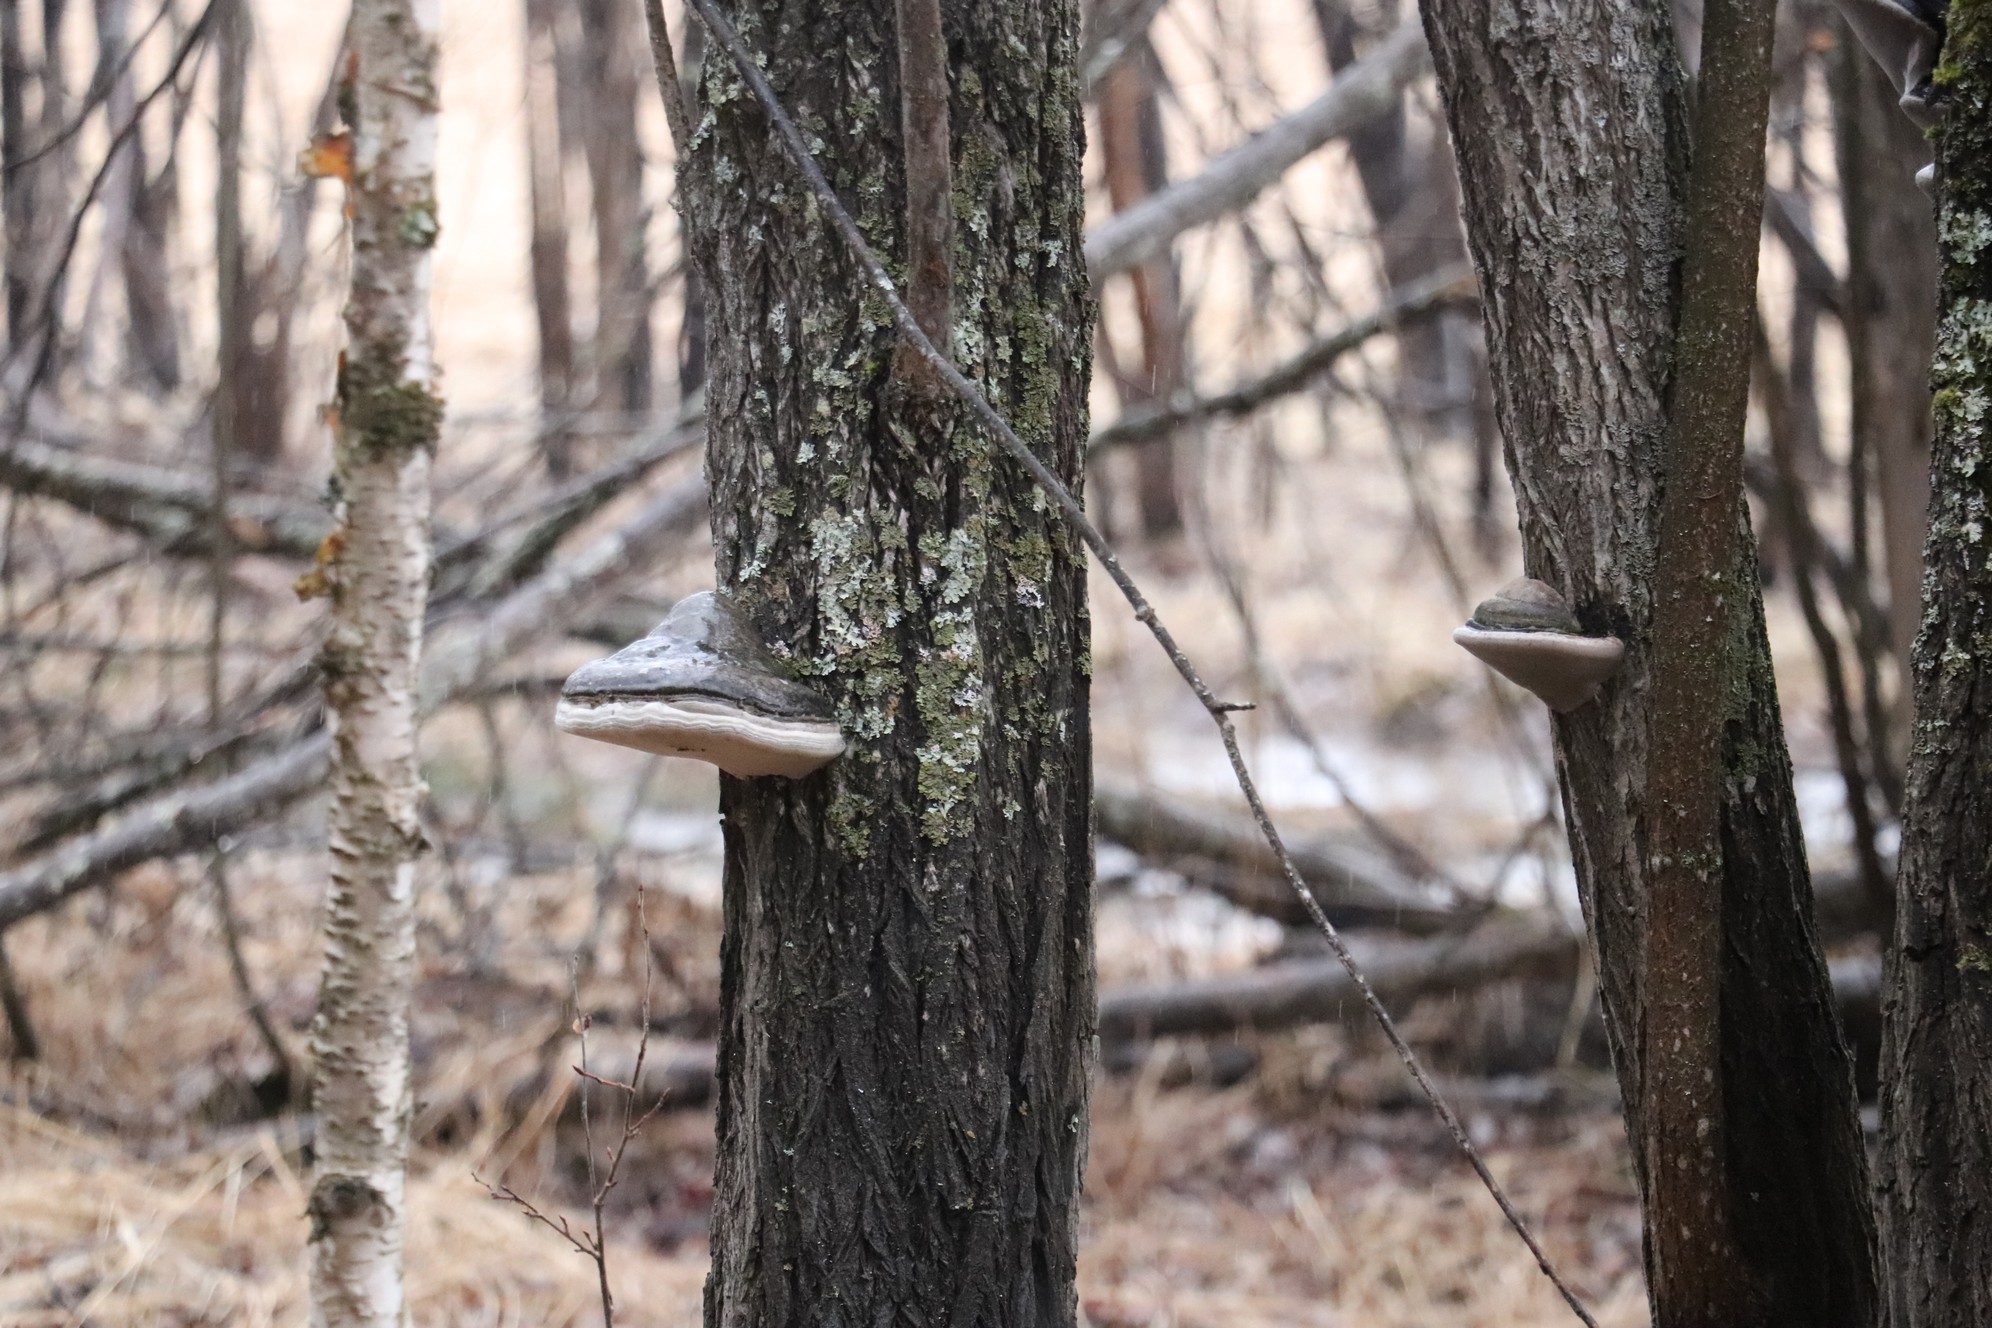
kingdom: Fungi
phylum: Basidiomycota
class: Agaricomycetes
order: Hymenochaetales
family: Hymenochaetaceae
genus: Phellinus
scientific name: Phellinus igniarius
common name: Willow bracket
